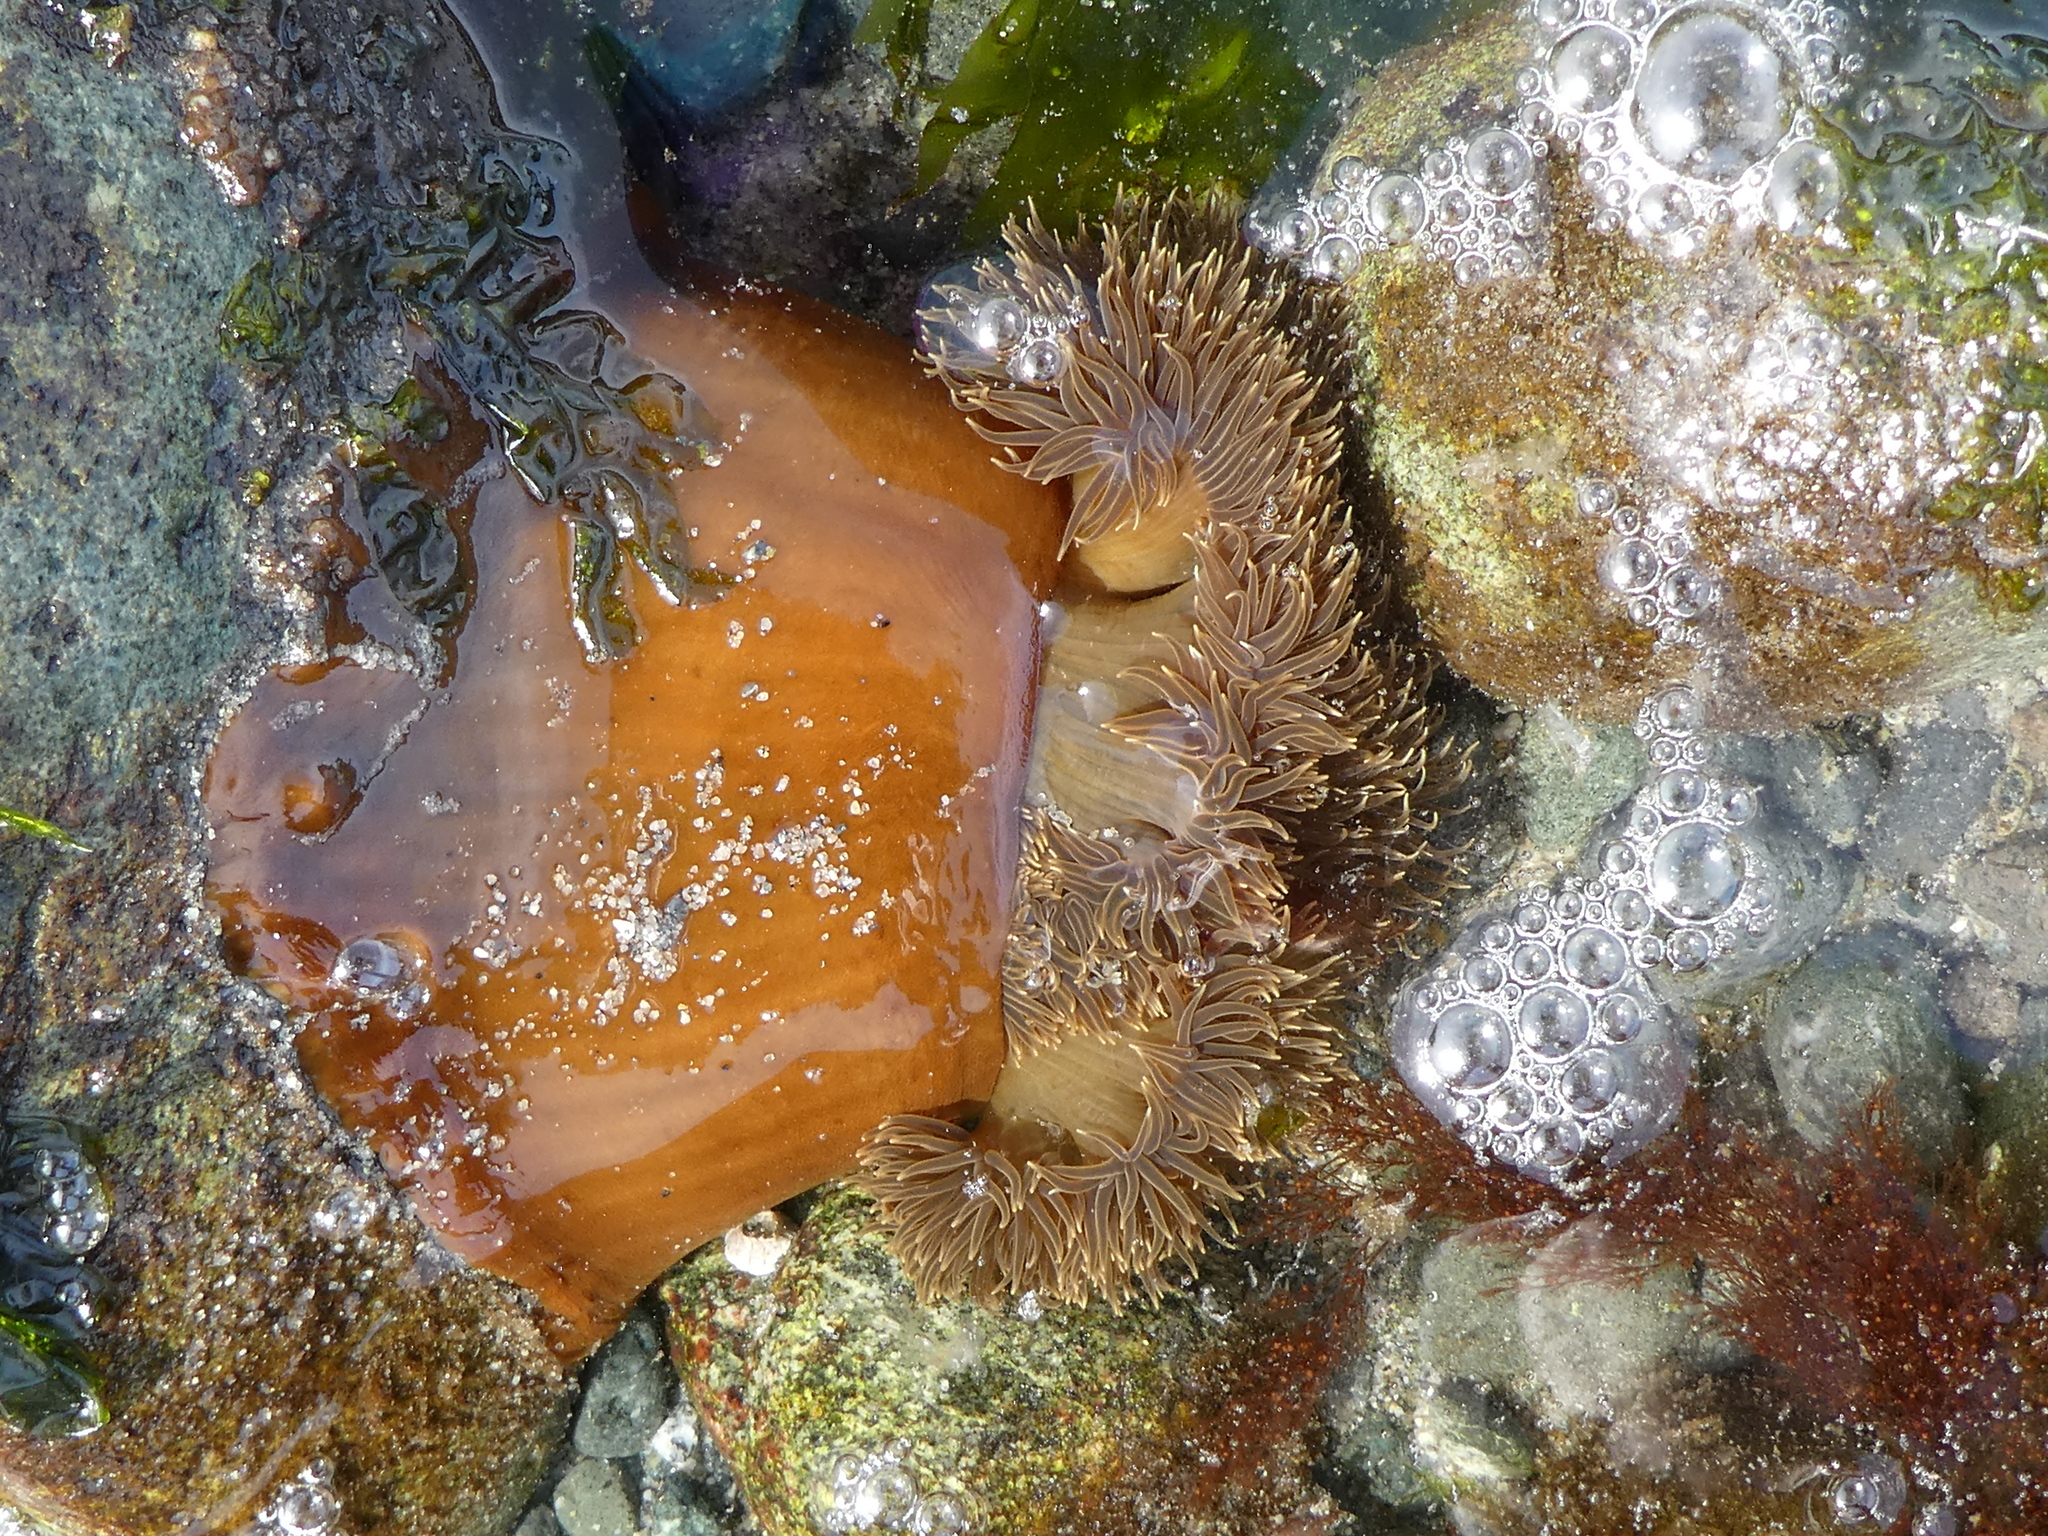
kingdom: Animalia
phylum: Cnidaria
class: Anthozoa
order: Actiniaria
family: Metridiidae
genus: Metridium
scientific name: Metridium senile
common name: Clonal plumose anemone
